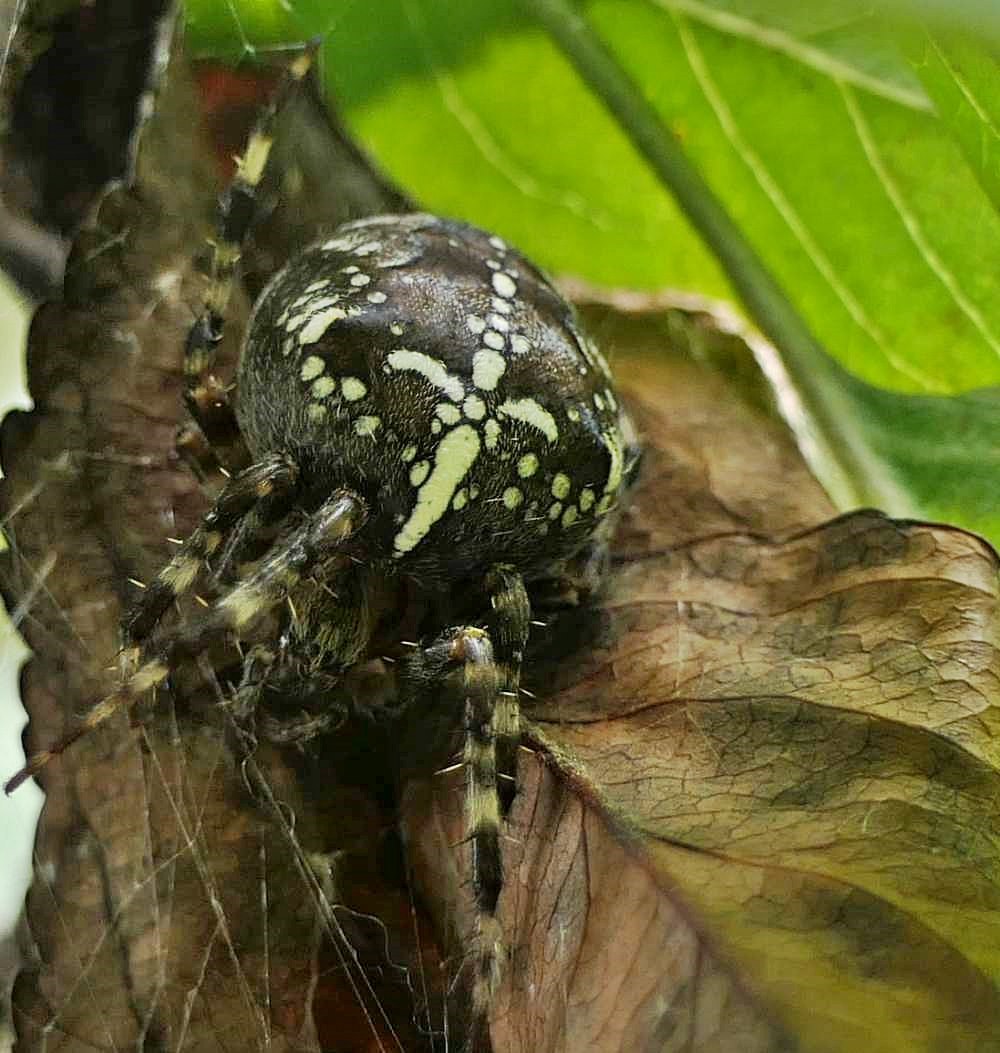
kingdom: Animalia
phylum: Arthropoda
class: Arachnida
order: Araneae
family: Araneidae
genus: Araneus
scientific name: Araneus diadematus
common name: Cross orbweaver
